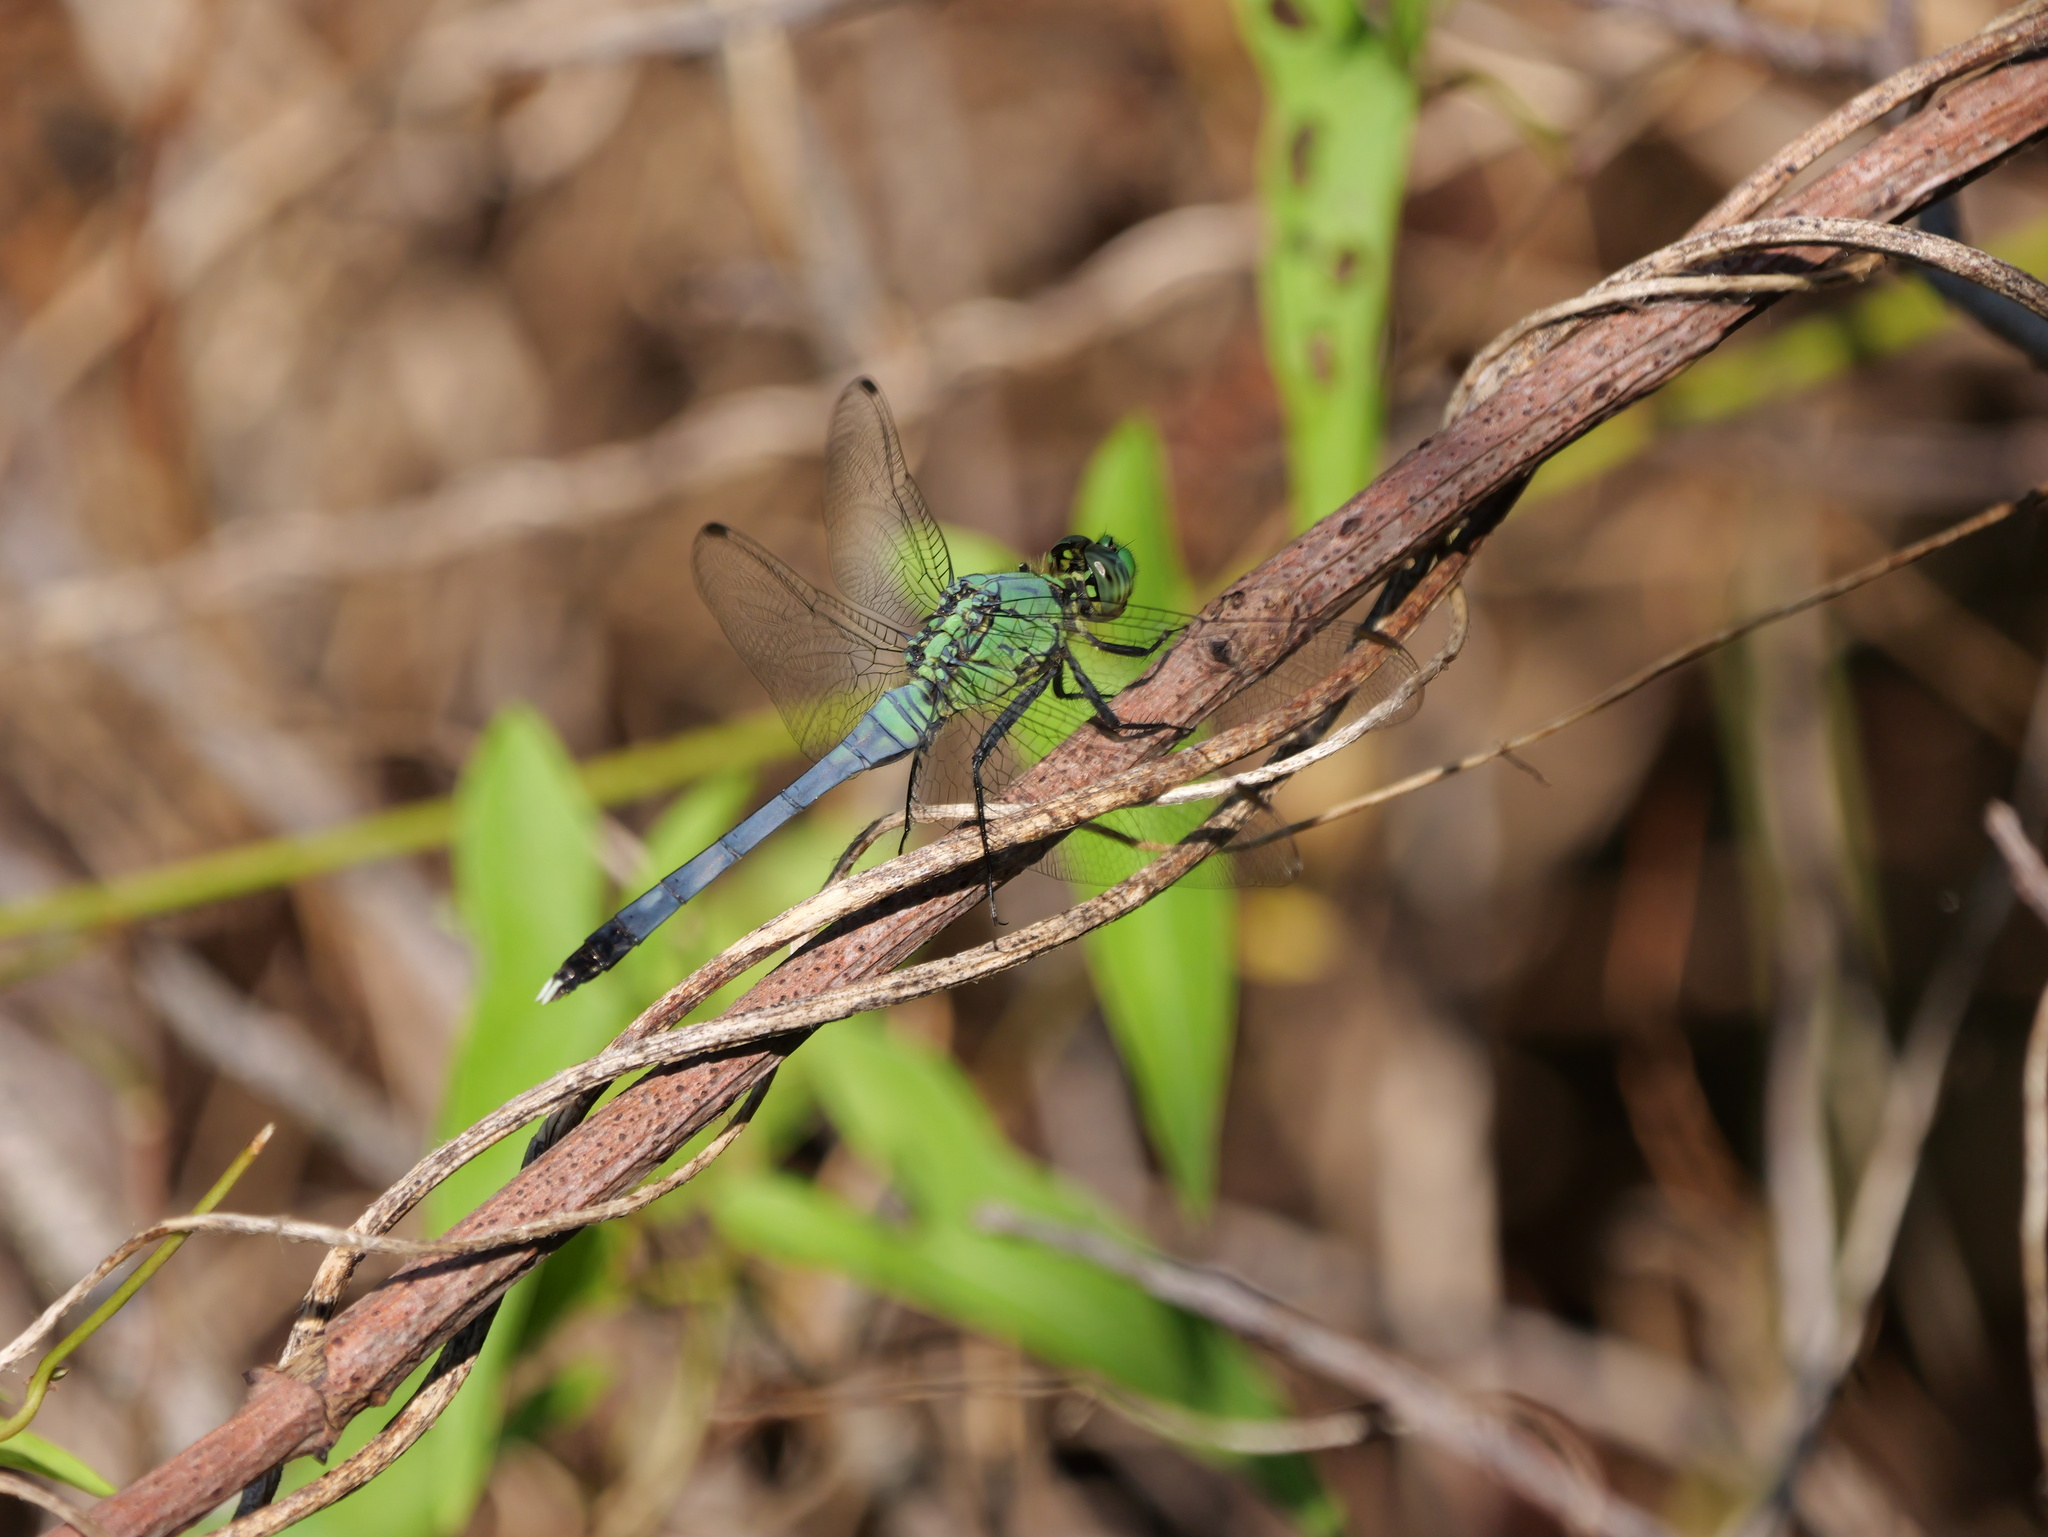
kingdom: Animalia
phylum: Arthropoda
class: Insecta
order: Odonata
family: Libellulidae
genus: Erythemis
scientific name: Erythemis simplicicollis
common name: Eastern pondhawk
